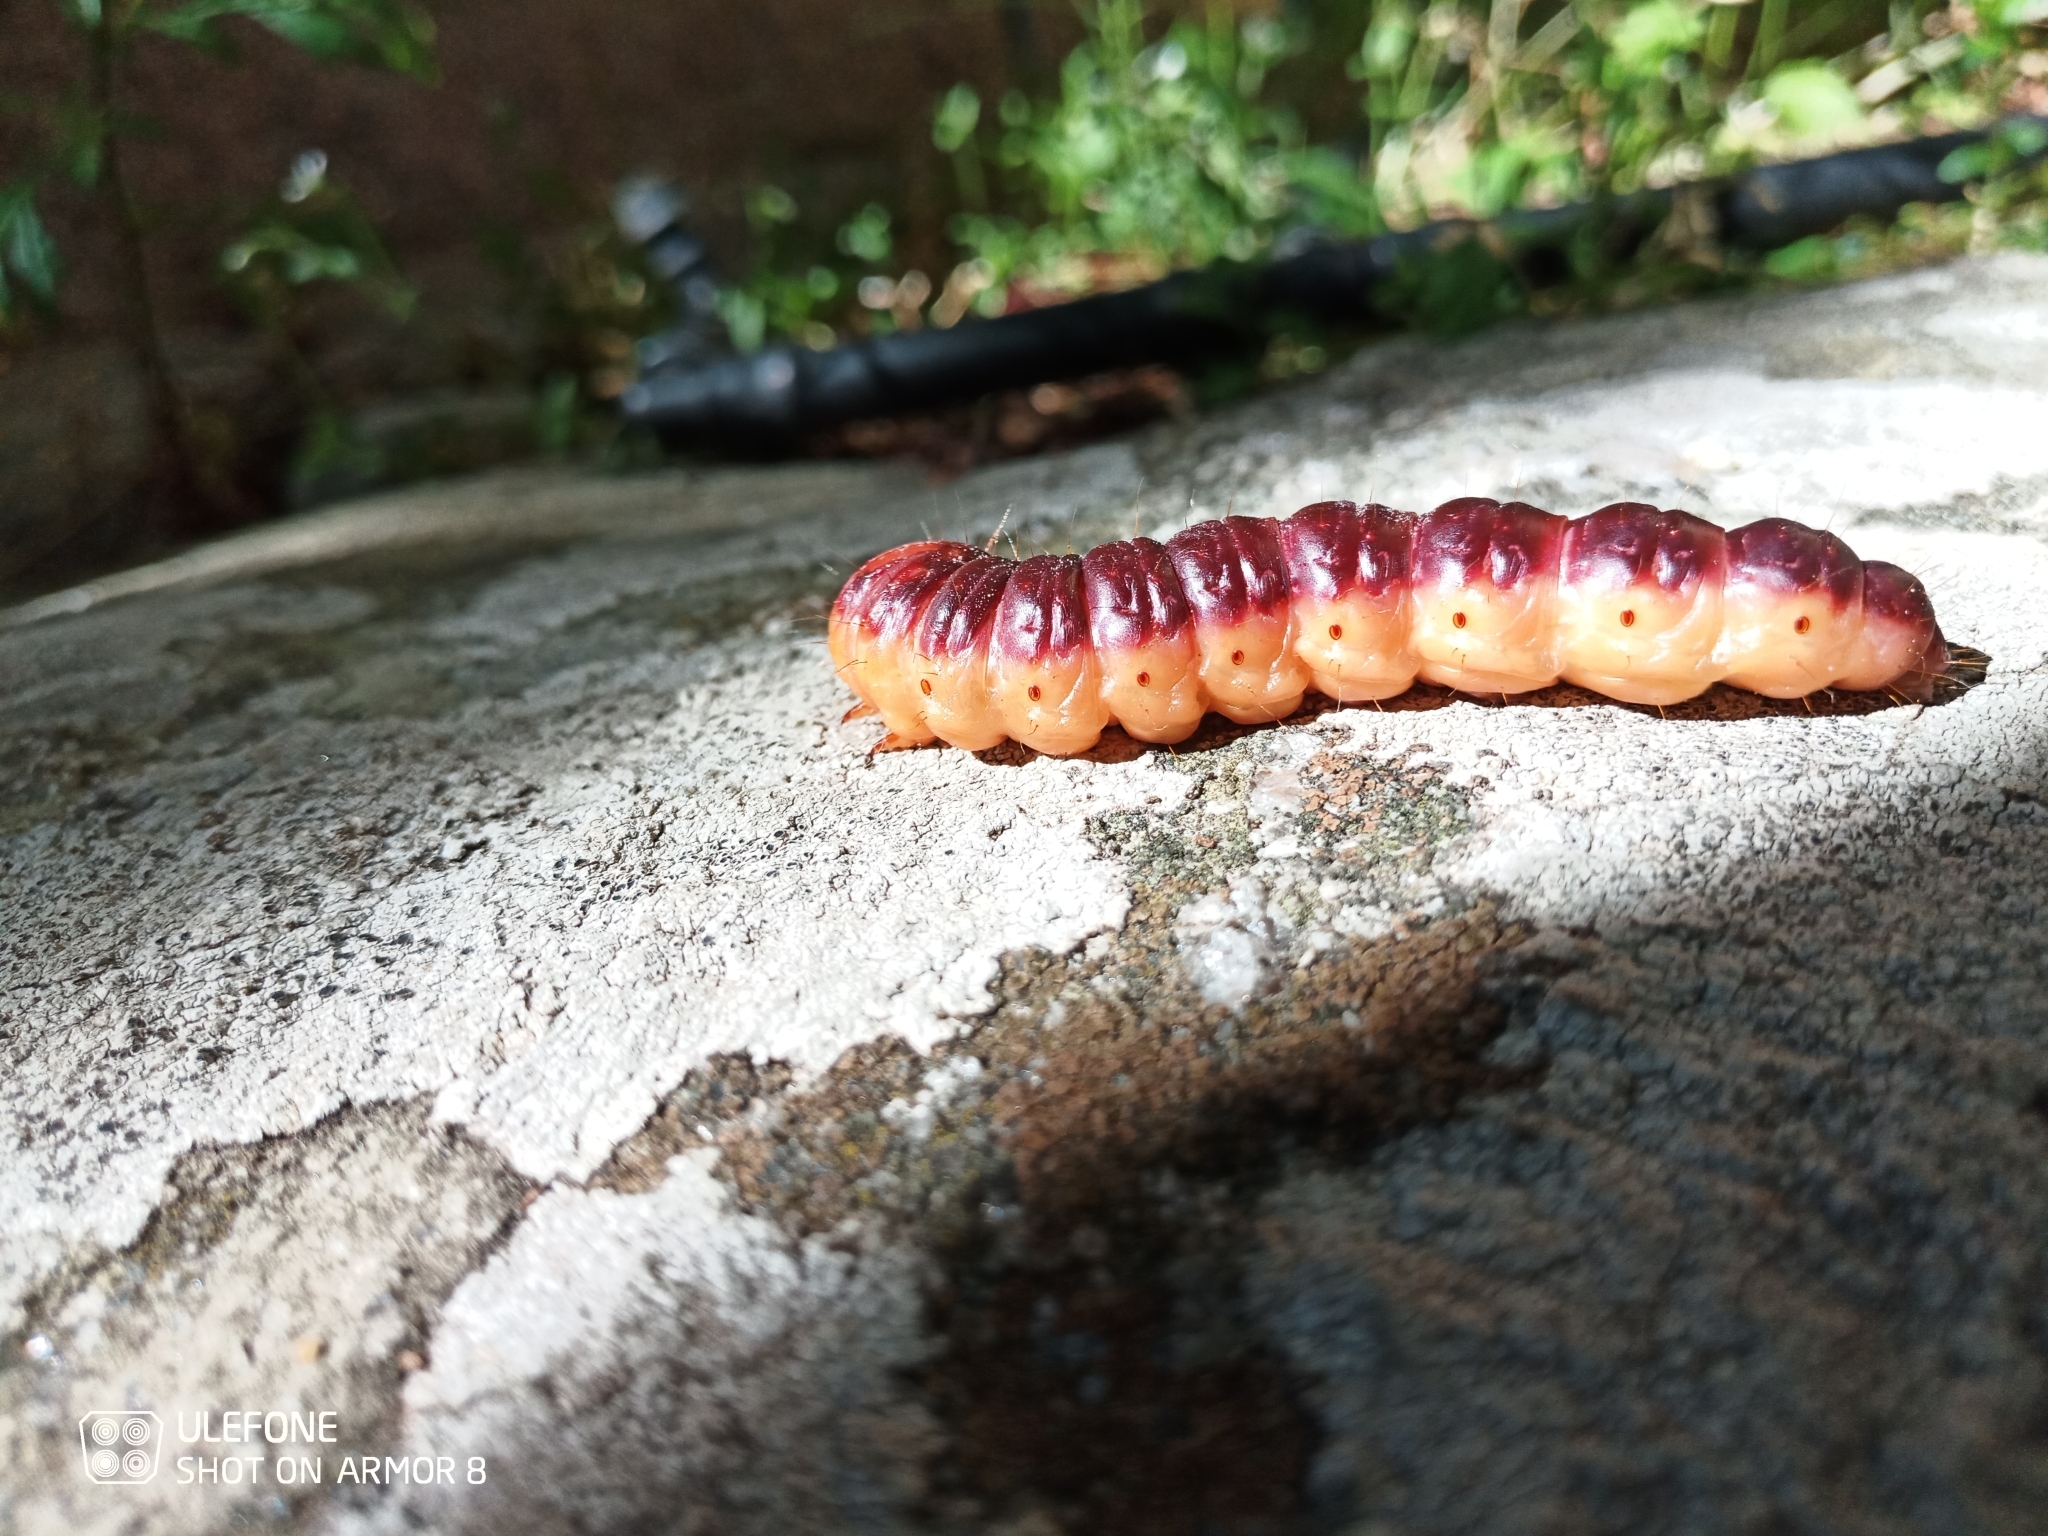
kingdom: Animalia
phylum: Arthropoda
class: Insecta
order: Lepidoptera
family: Cossidae
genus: Cossus
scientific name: Cossus cossus
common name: Goat moth
